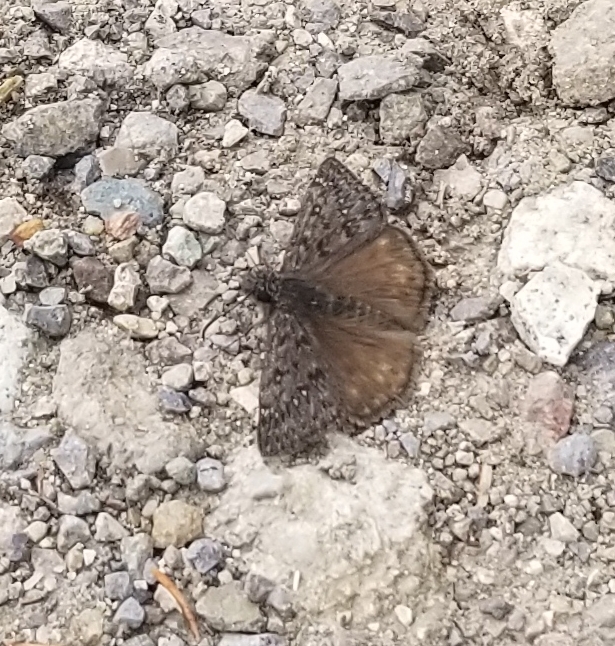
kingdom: Animalia
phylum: Arthropoda
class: Insecta
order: Lepidoptera
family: Hesperiidae
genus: Erynnis
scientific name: Erynnis propertius
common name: Propertius duskywing
